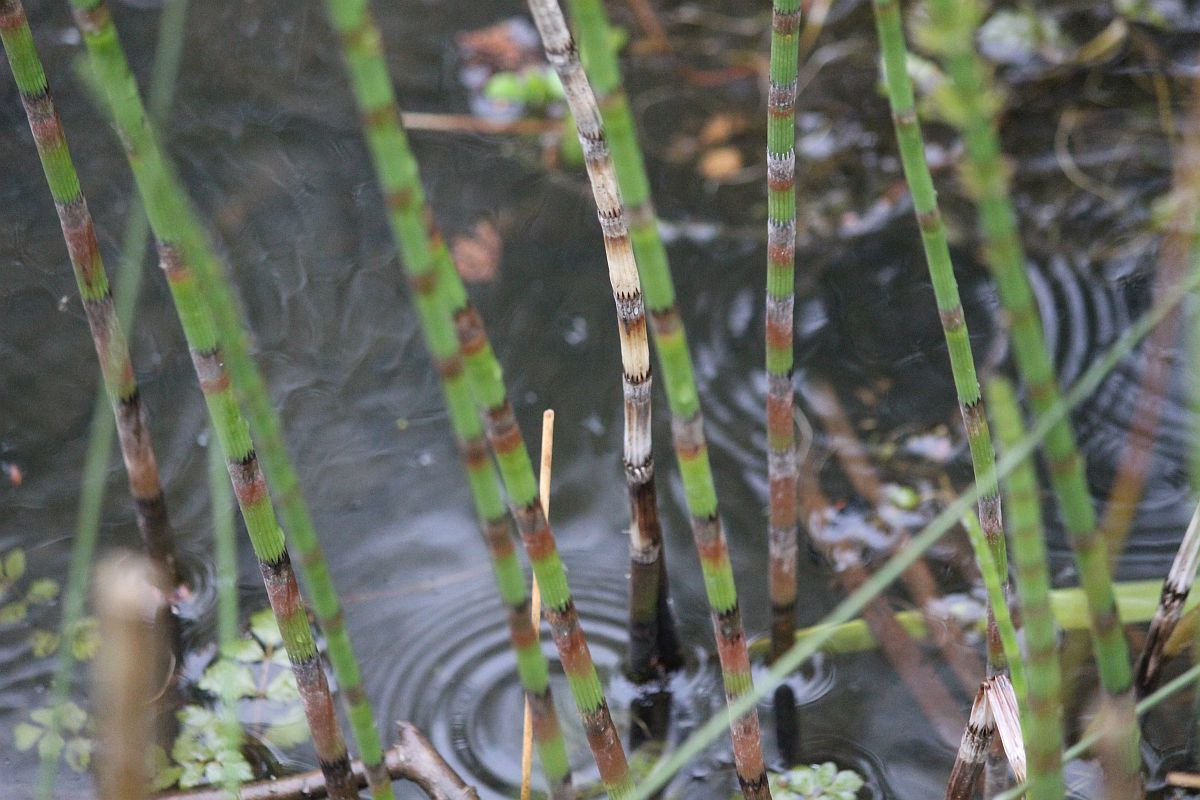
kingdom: Plantae
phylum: Tracheophyta
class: Polypodiopsida
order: Equisetales
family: Equisetaceae
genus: Equisetum
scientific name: Equisetum fluviatile
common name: Water horsetail
